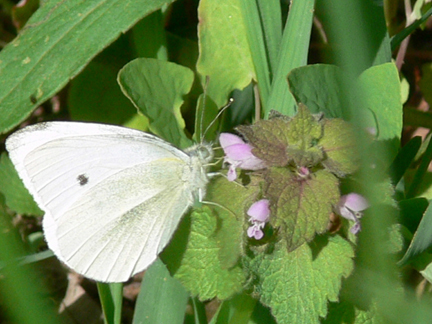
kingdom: Animalia
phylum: Arthropoda
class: Insecta
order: Lepidoptera
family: Pieridae
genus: Pieris
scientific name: Pieris rapae
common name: Small white
